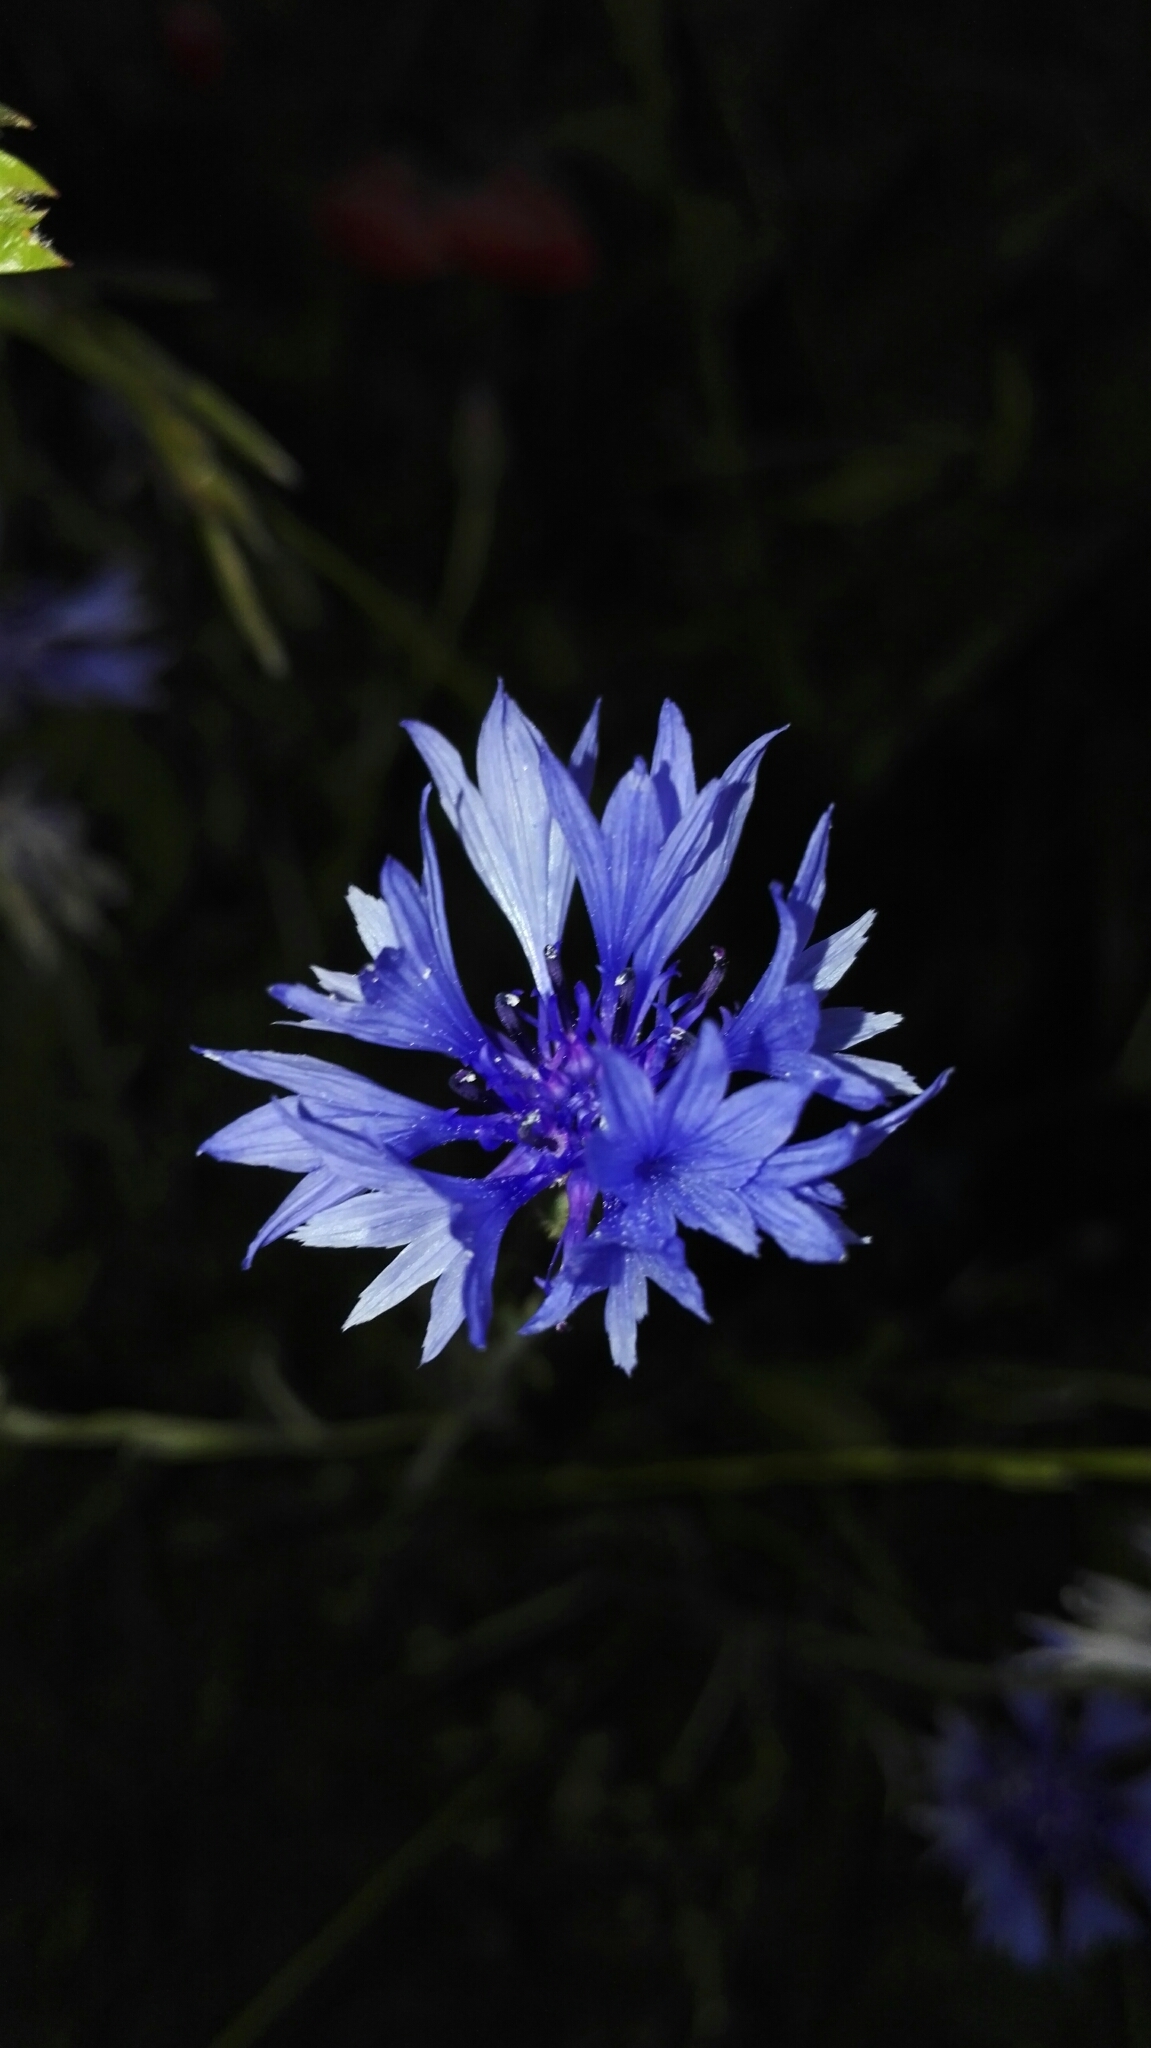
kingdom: Plantae
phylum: Tracheophyta
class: Magnoliopsida
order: Asterales
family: Asteraceae
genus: Centaurea
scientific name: Centaurea cyanus
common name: Cornflower
